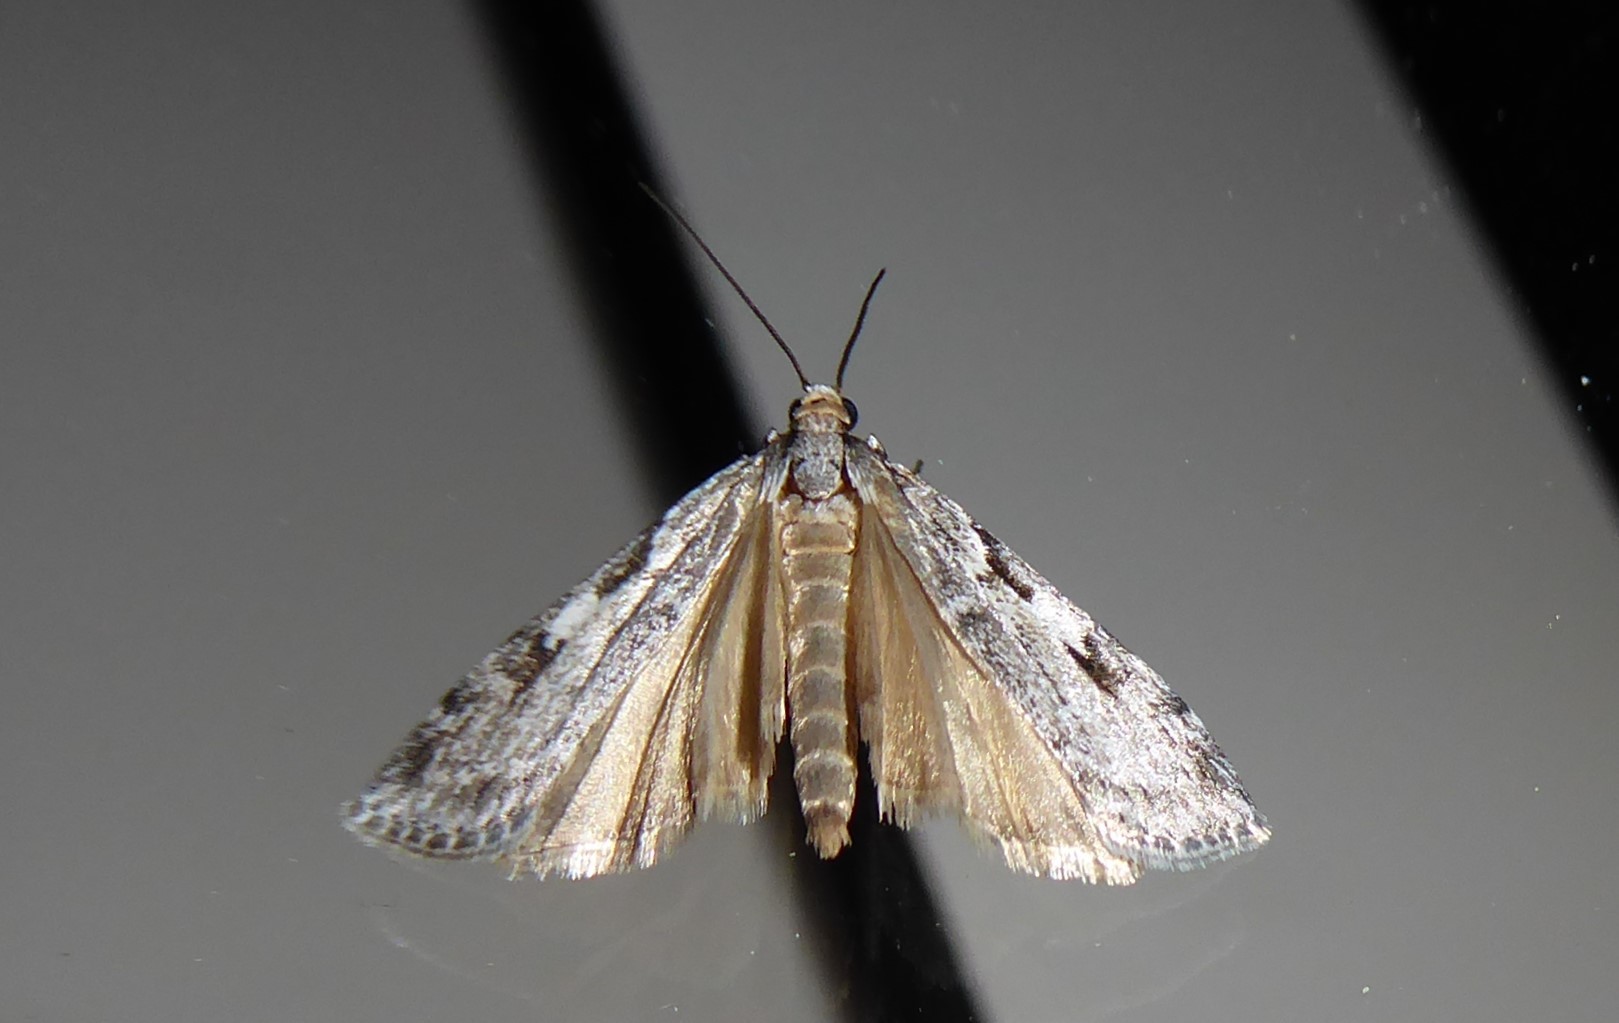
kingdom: Animalia
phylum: Arthropoda
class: Insecta
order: Lepidoptera
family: Crambidae
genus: Scoparia
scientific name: Scoparia halopis
